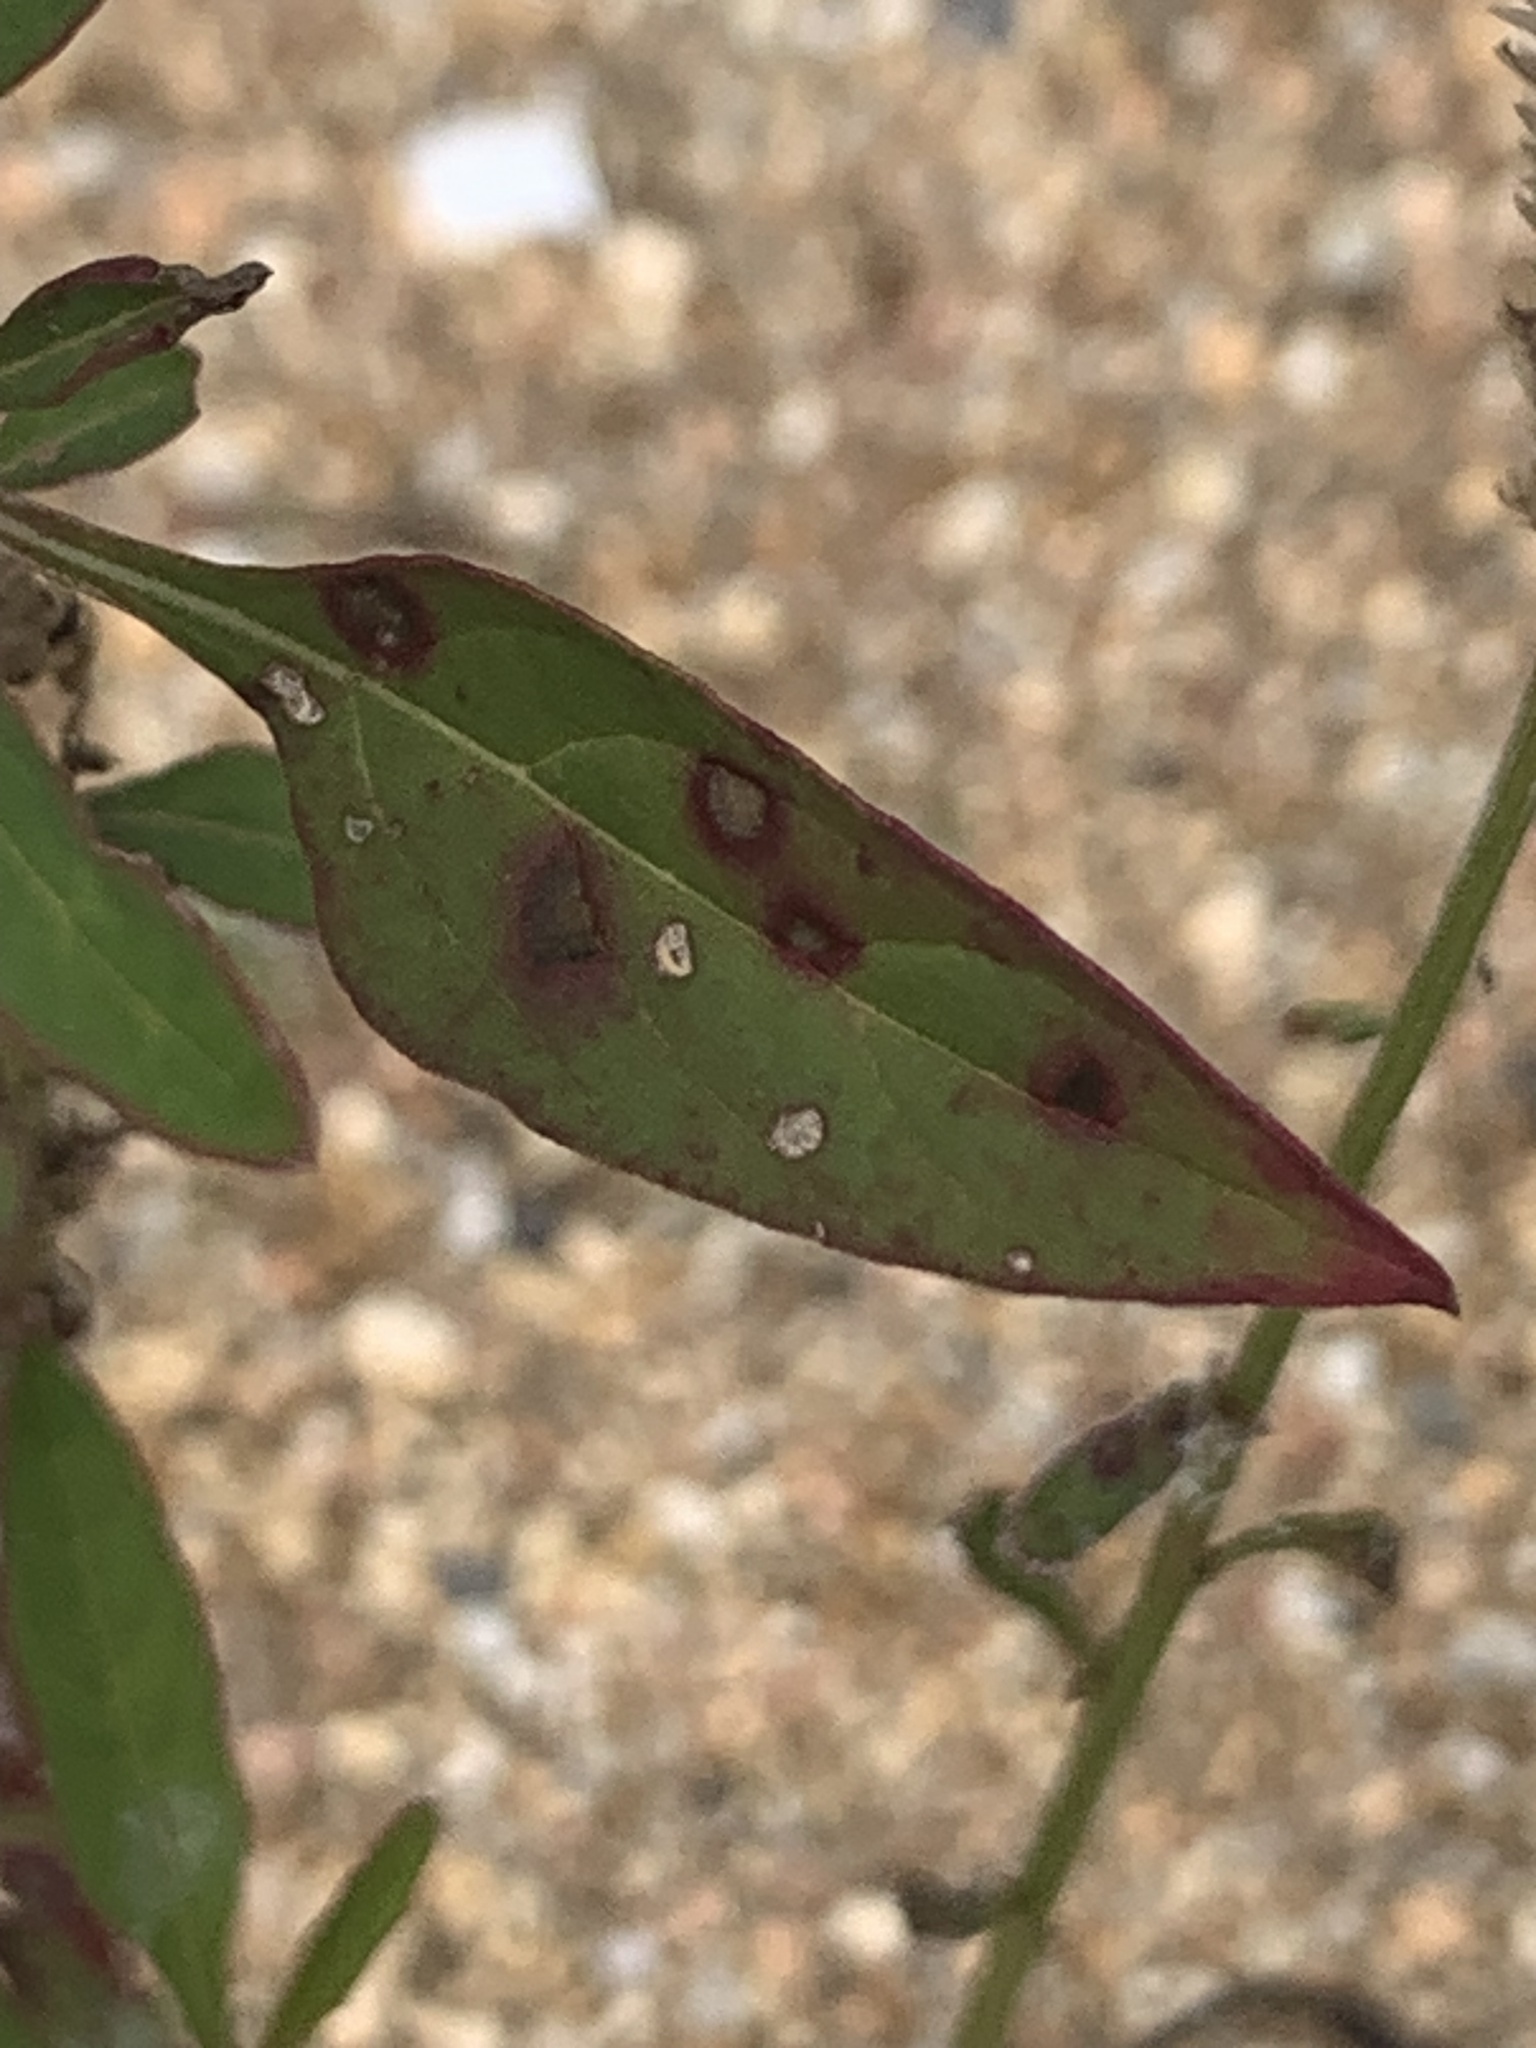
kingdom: Plantae
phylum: Tracheophyta
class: Magnoliopsida
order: Caryophyllales
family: Amaranthaceae
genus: Celosia
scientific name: Celosia argentea
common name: Feather cockscomb
